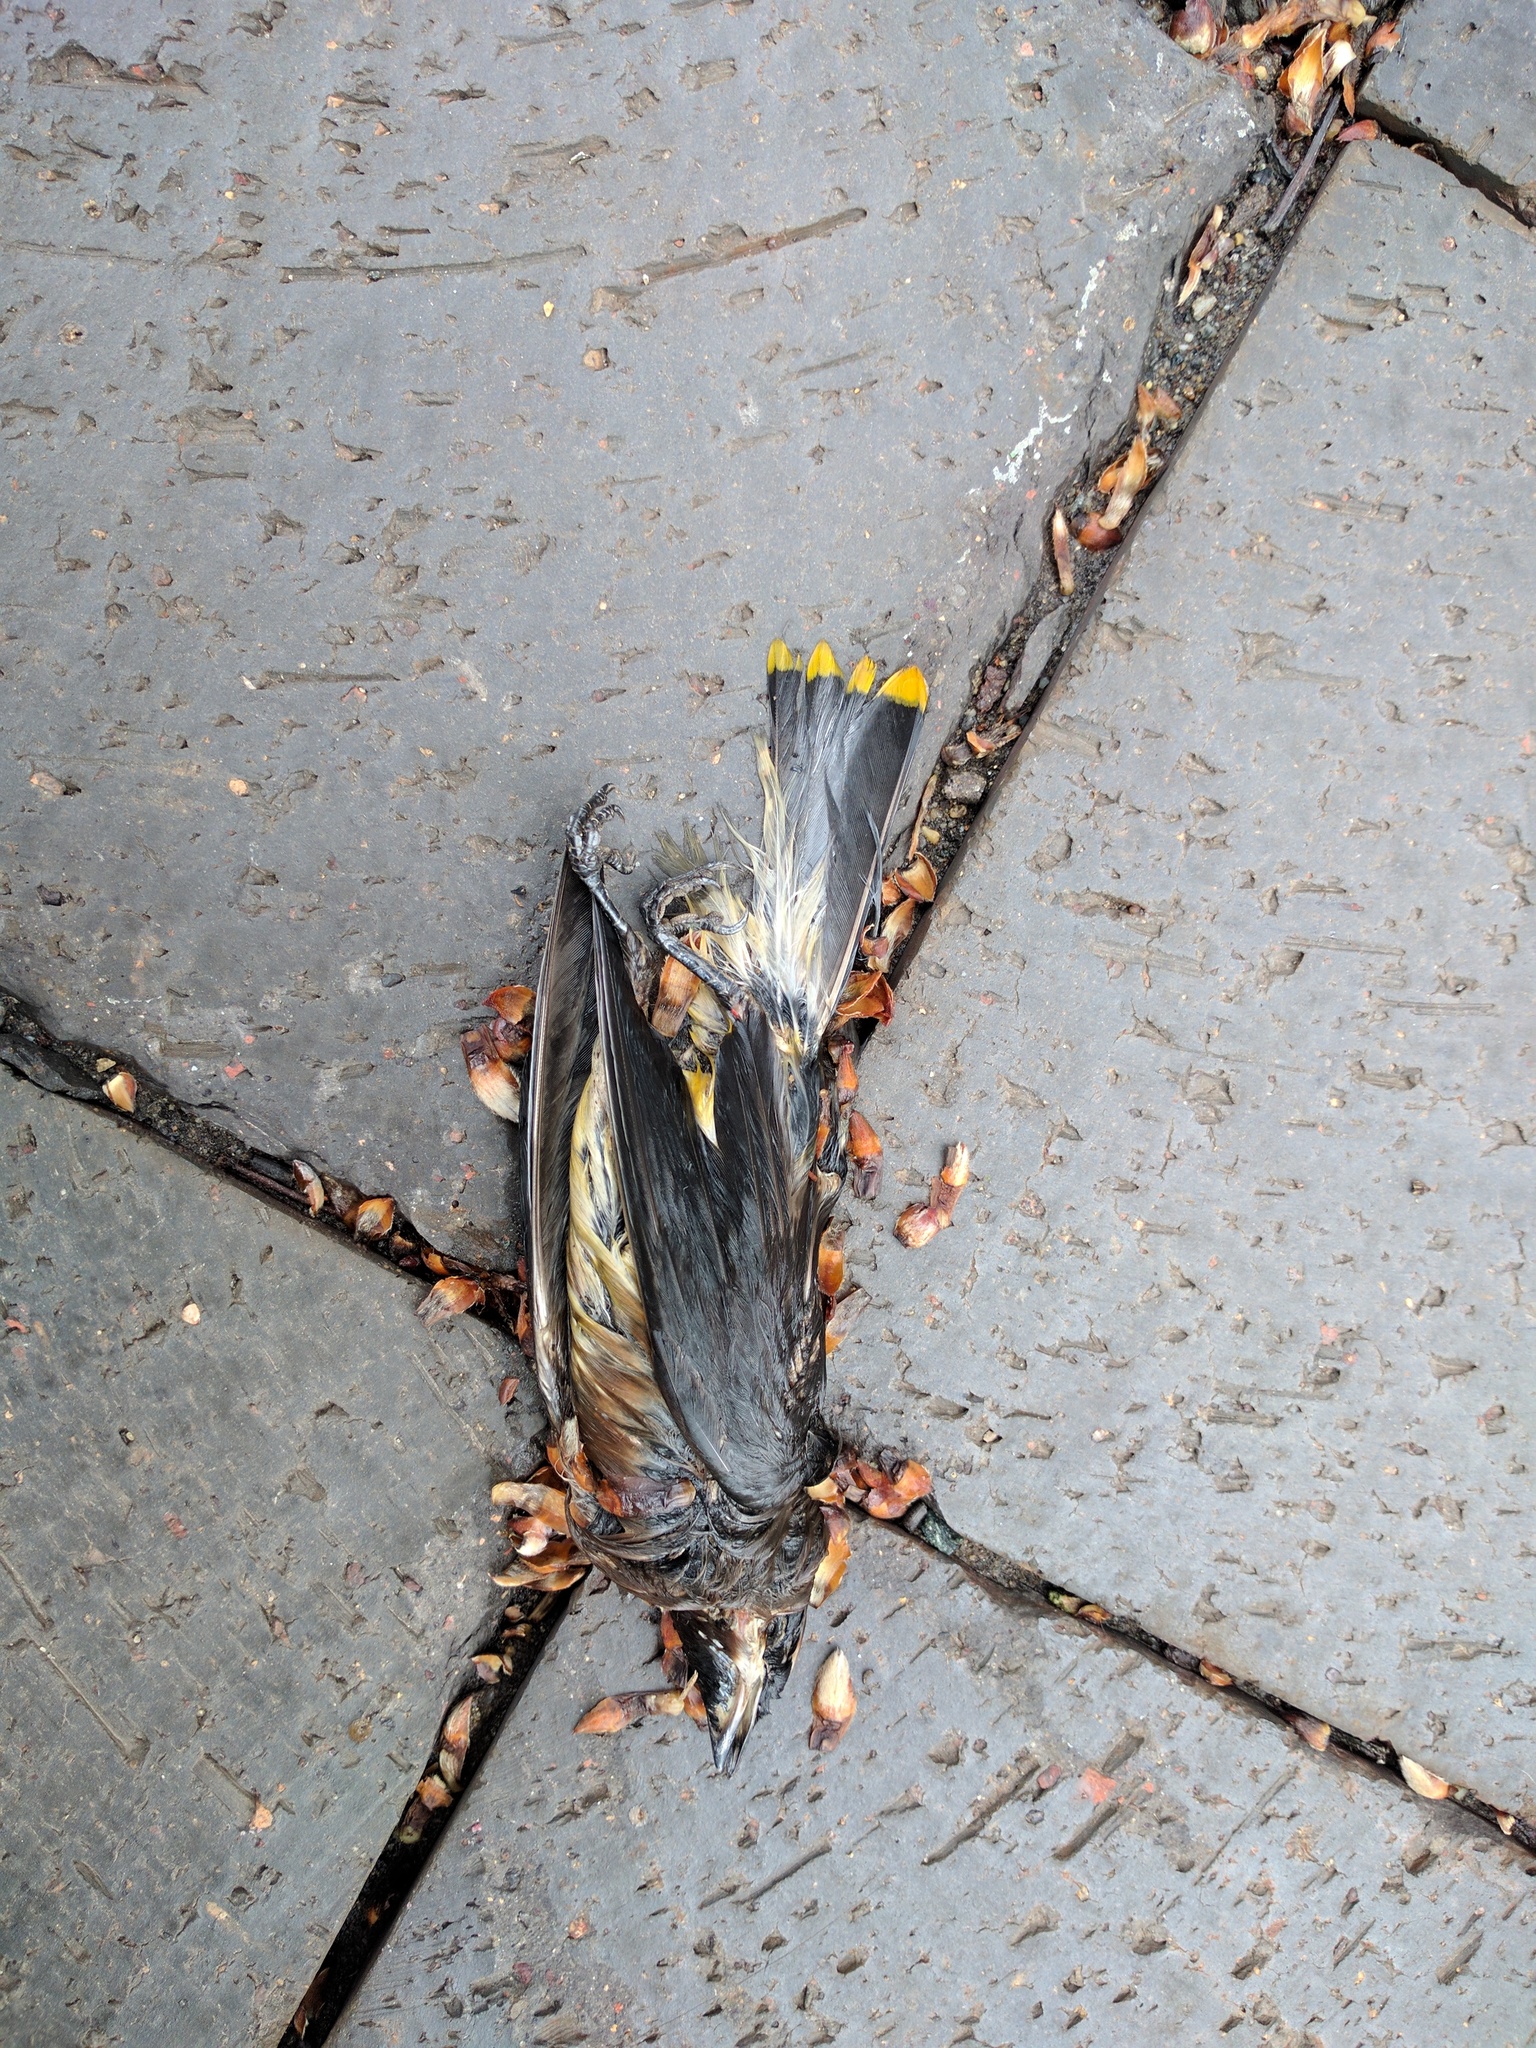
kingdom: Animalia
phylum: Chordata
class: Aves
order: Passeriformes
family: Bombycillidae
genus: Bombycilla
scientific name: Bombycilla cedrorum
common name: Cedar waxwing
